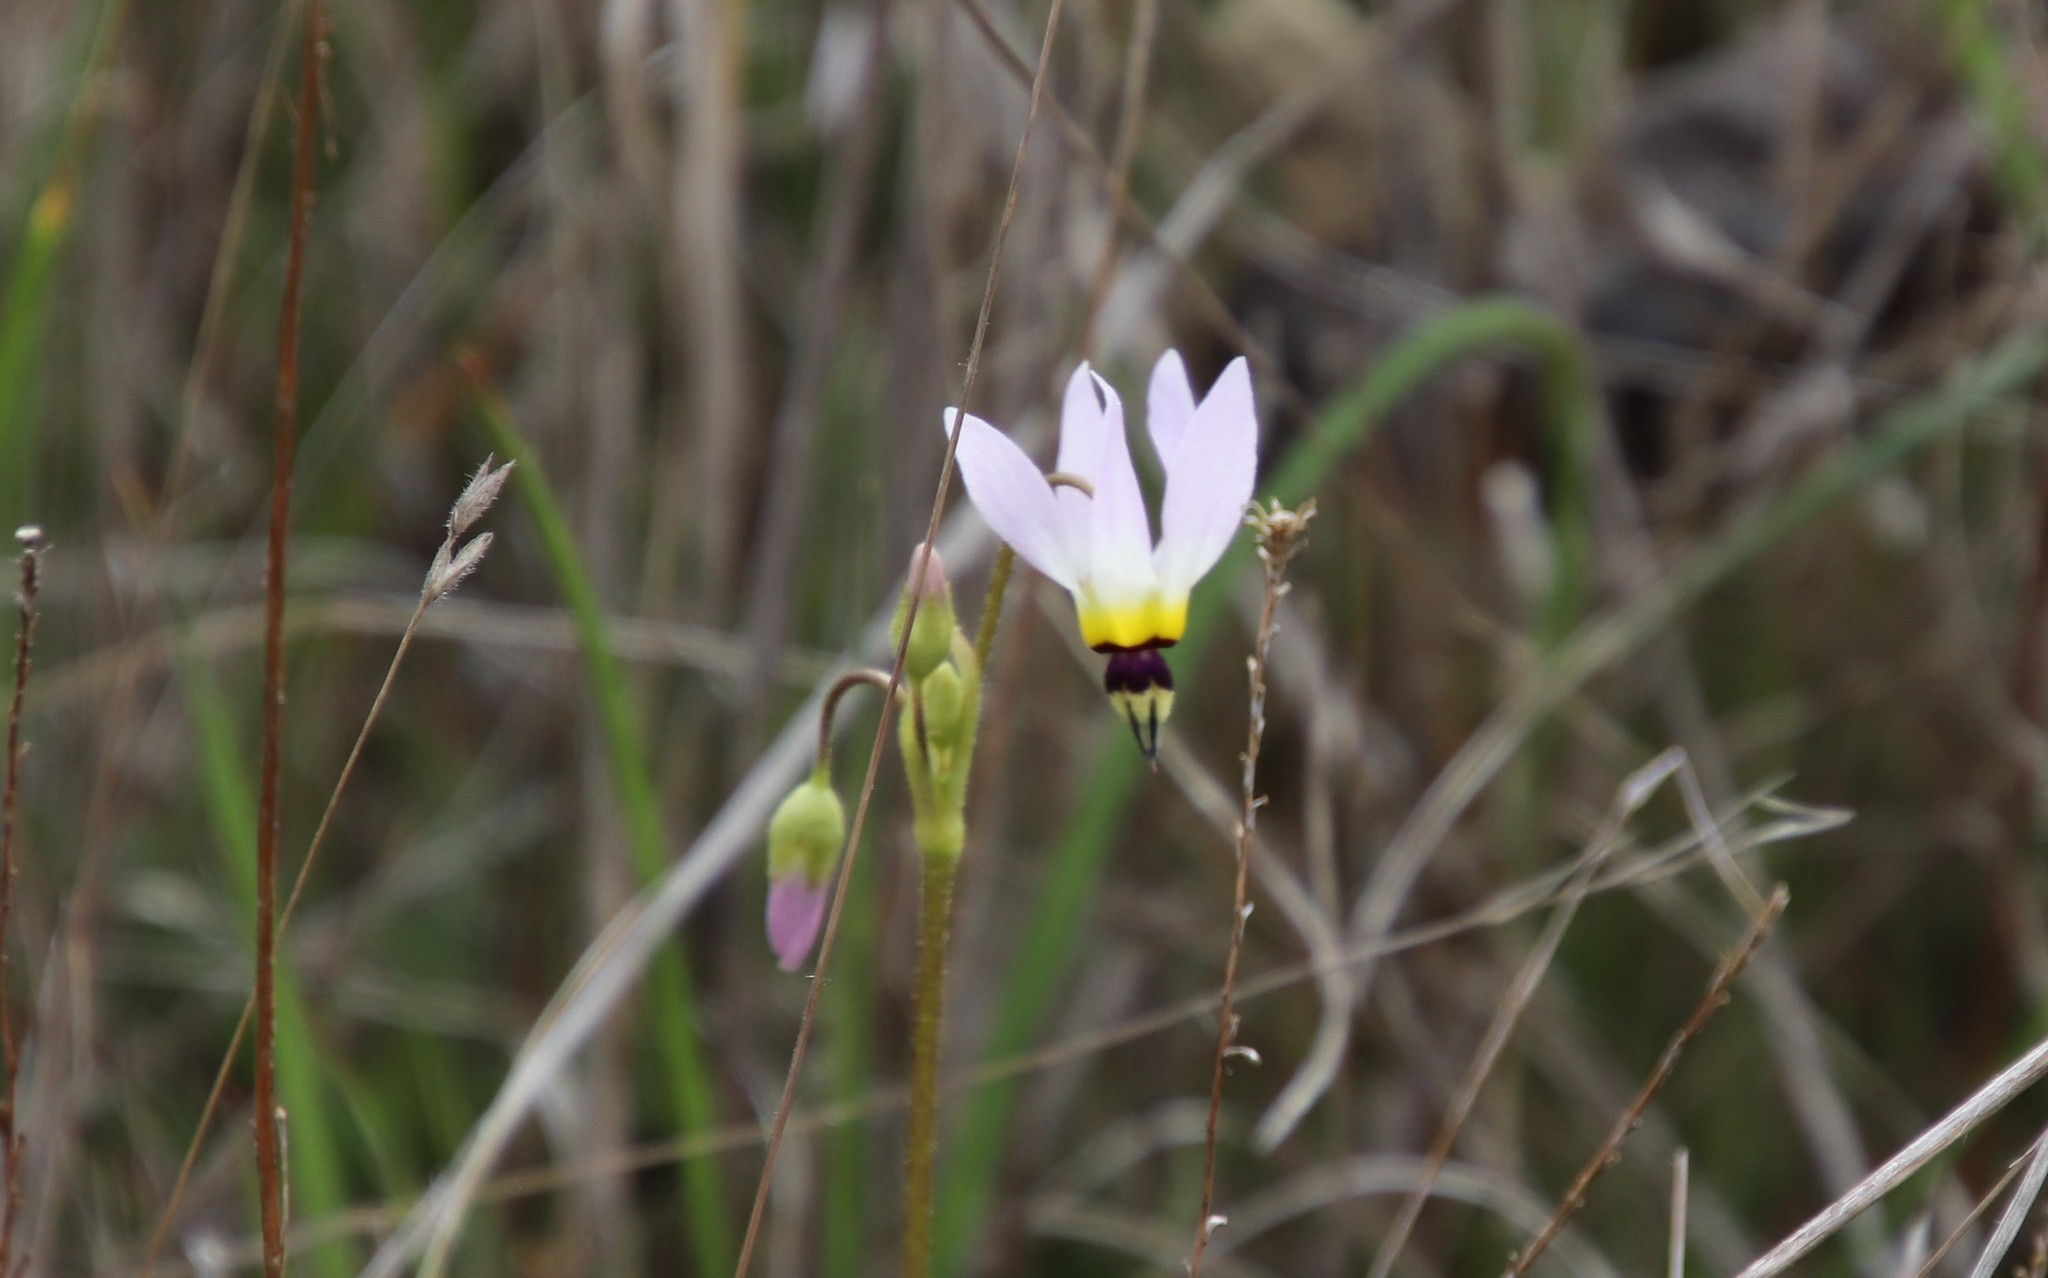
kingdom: Plantae
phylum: Tracheophyta
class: Magnoliopsida
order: Ericales
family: Primulaceae
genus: Dodecatheon
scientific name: Dodecatheon clevelandii
